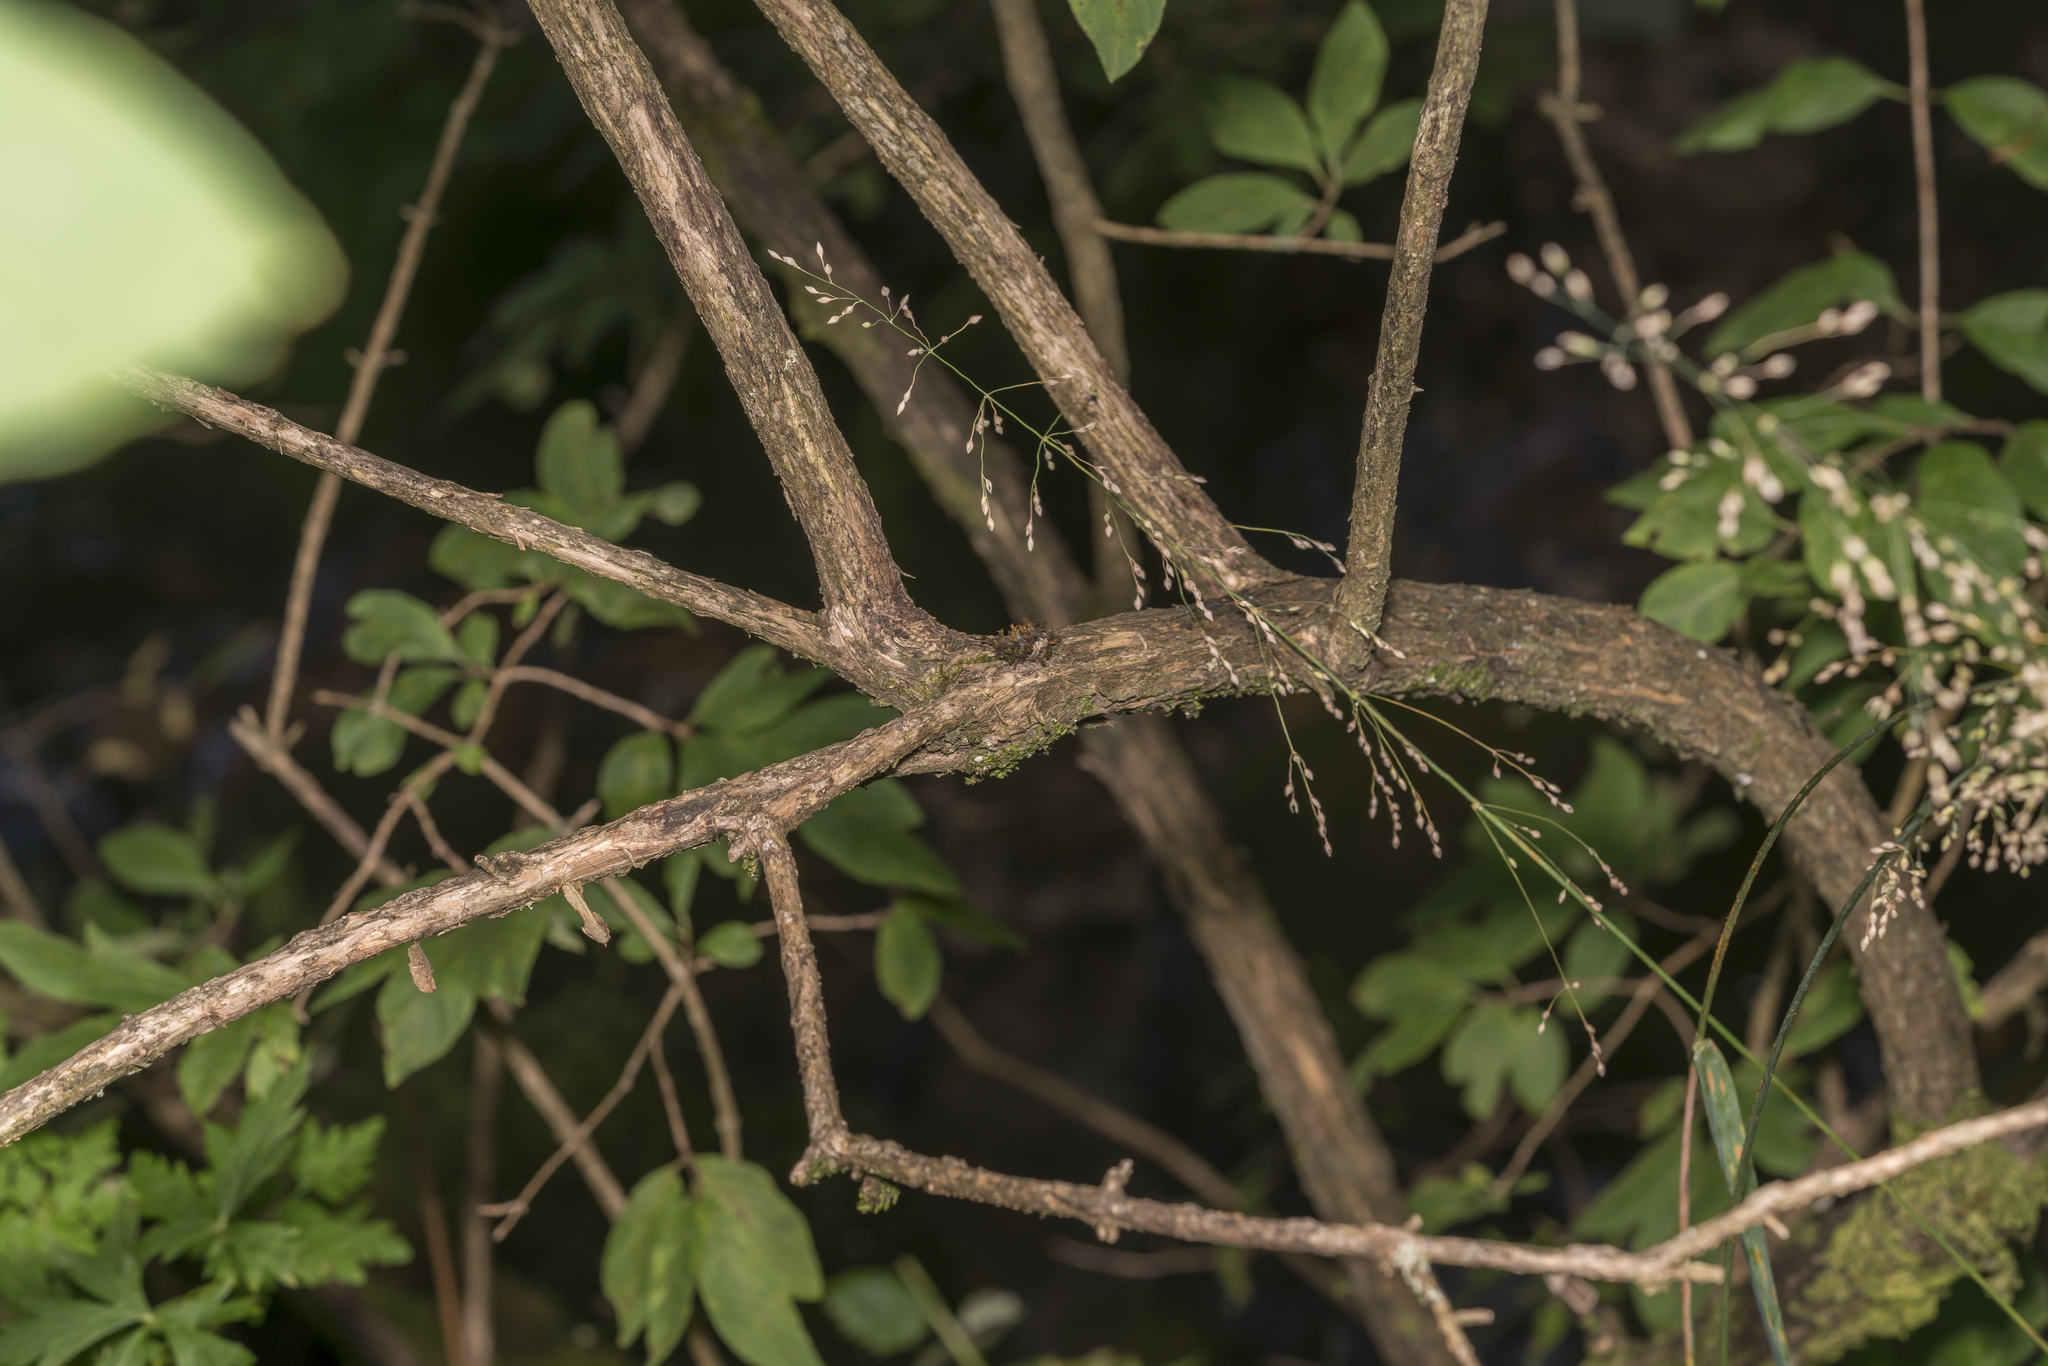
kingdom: Plantae
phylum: Tracheophyta
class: Magnoliopsida
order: Dipsacales
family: Caprifoliaceae
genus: Lonicera
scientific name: Lonicera xylosteum
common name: Fly honeysuckle
